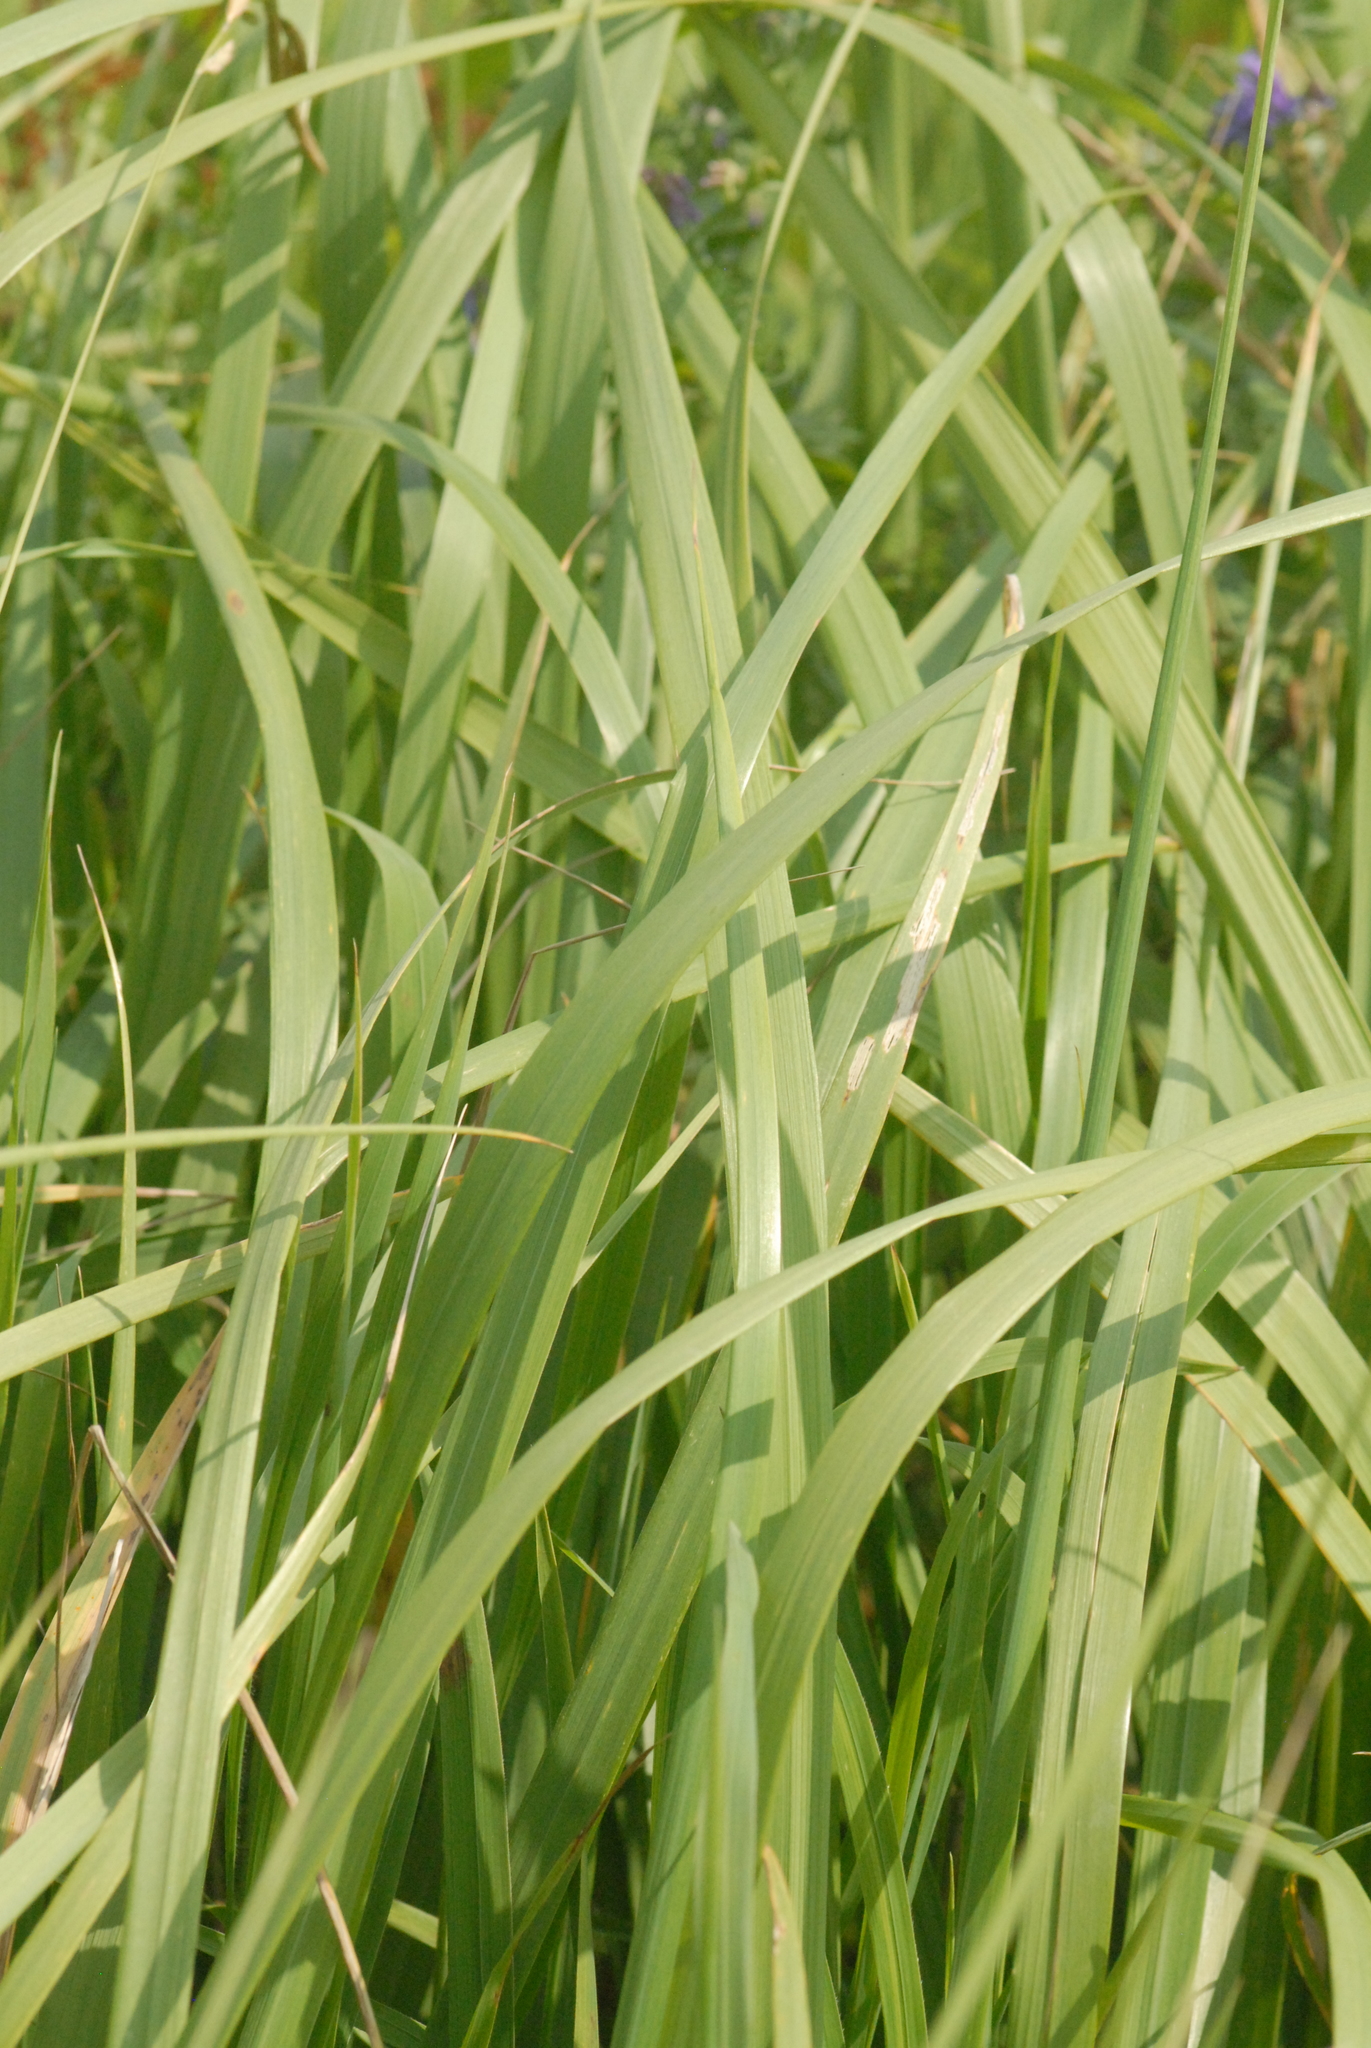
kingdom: Plantae
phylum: Tracheophyta
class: Liliopsida
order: Poales
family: Poaceae
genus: Phalaris
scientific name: Phalaris arundinacea
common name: Reed canary-grass
